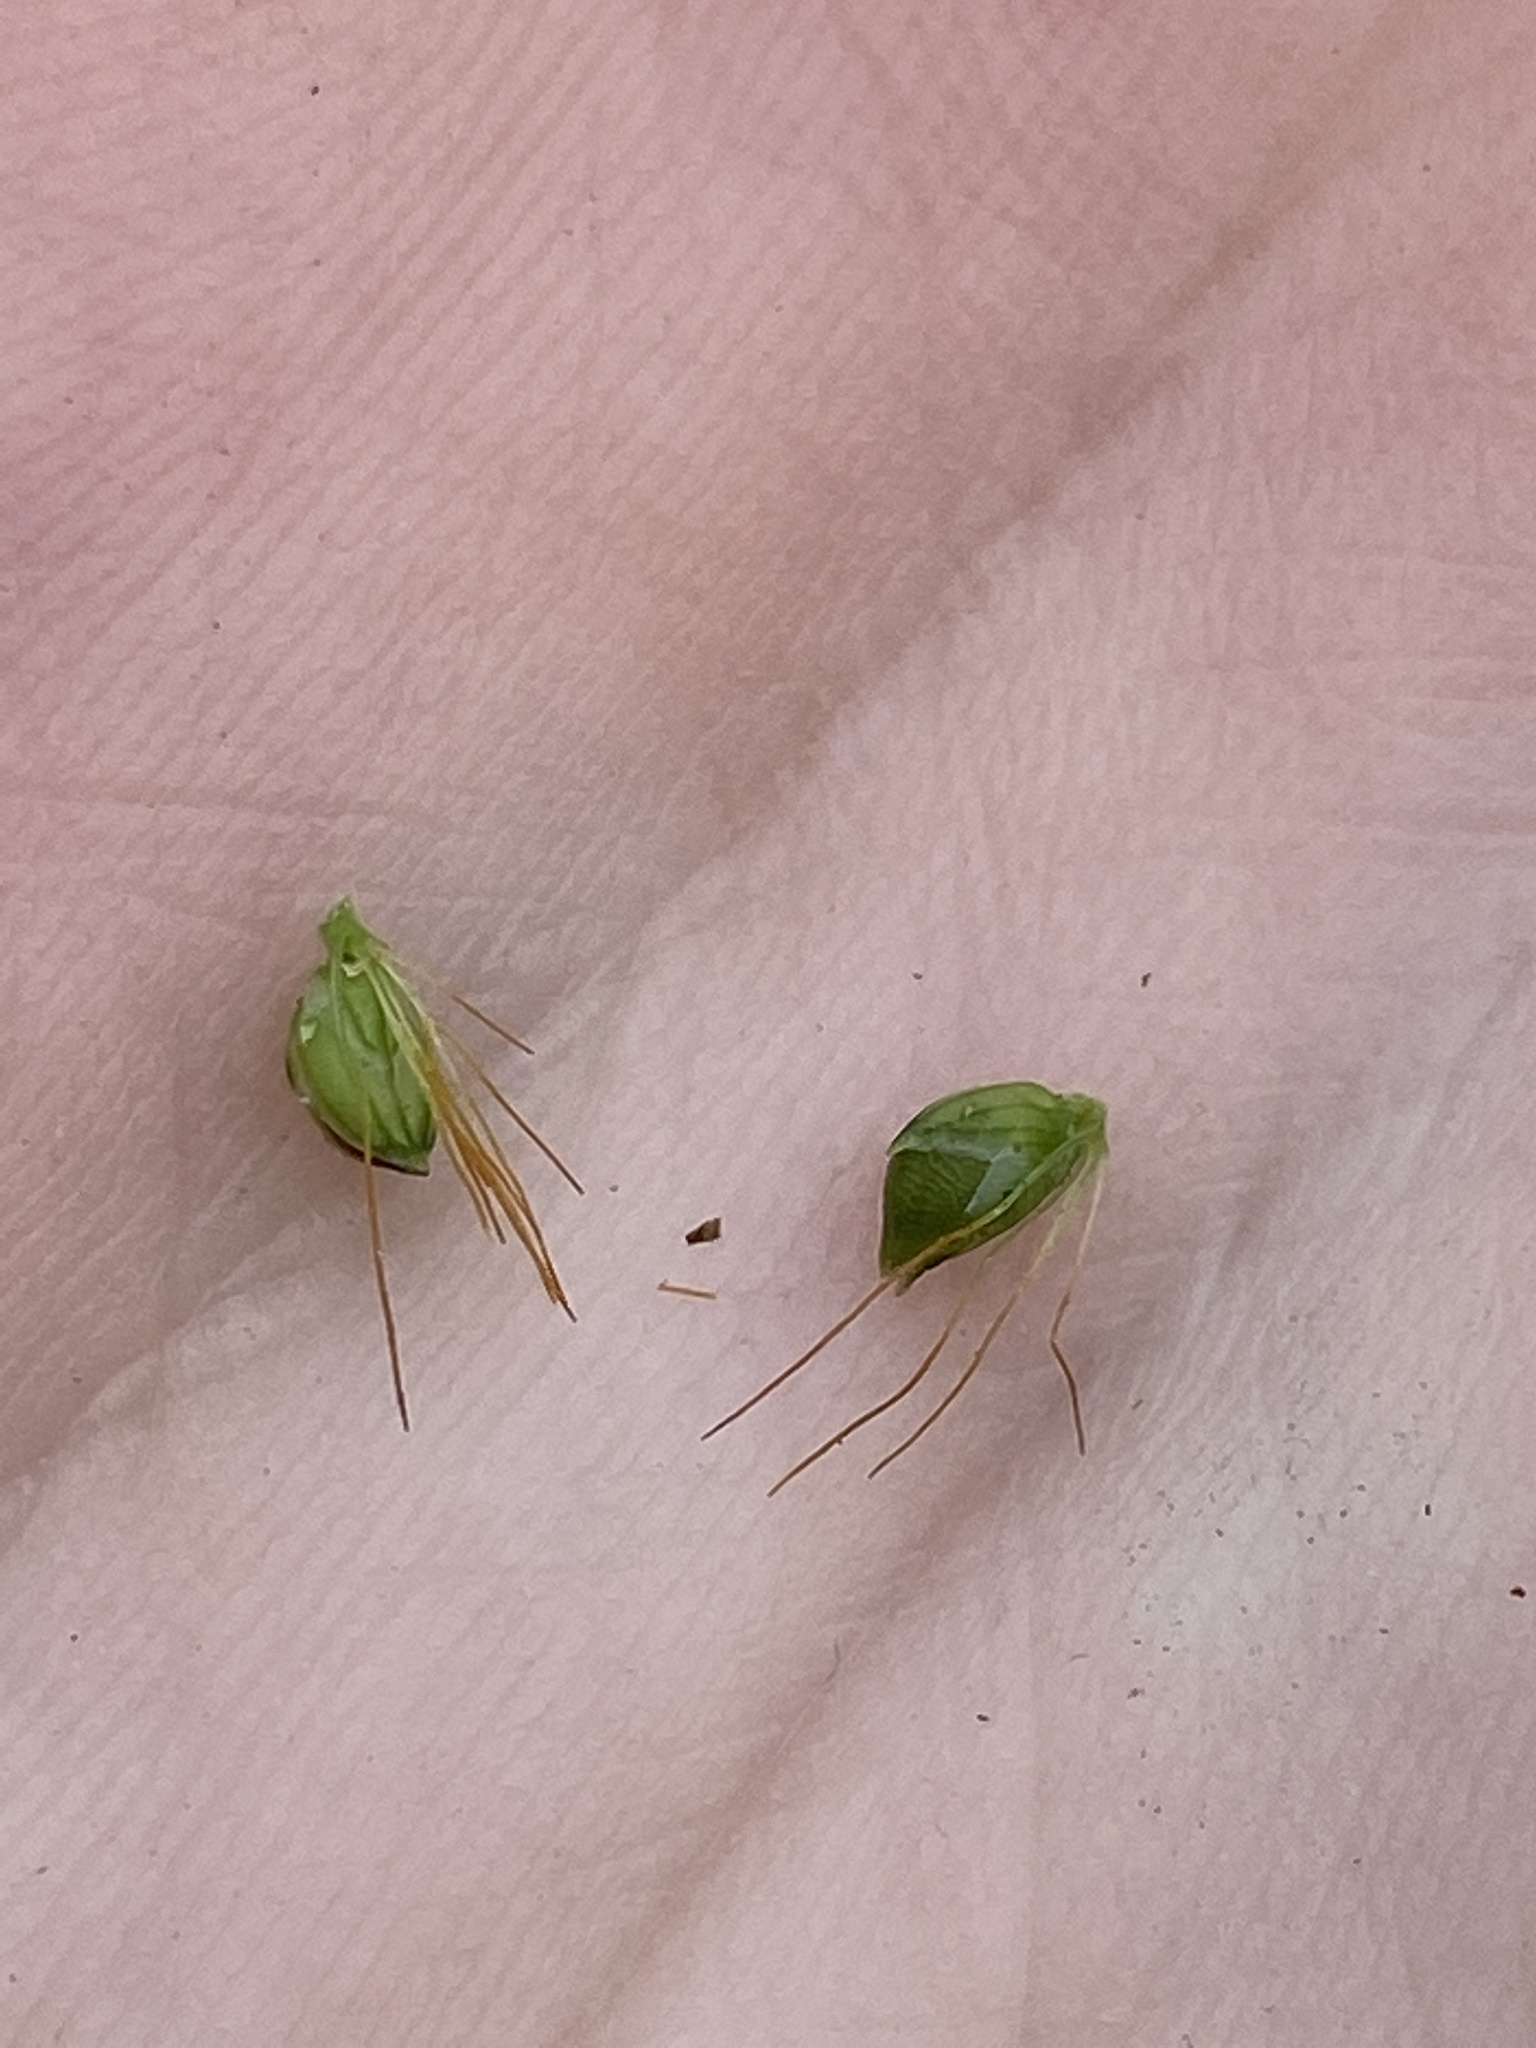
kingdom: Plantae
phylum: Tracheophyta
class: Liliopsida
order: Poales
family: Poaceae
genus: Setaria
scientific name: Setaria pumila
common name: Yellow bristle-grass
